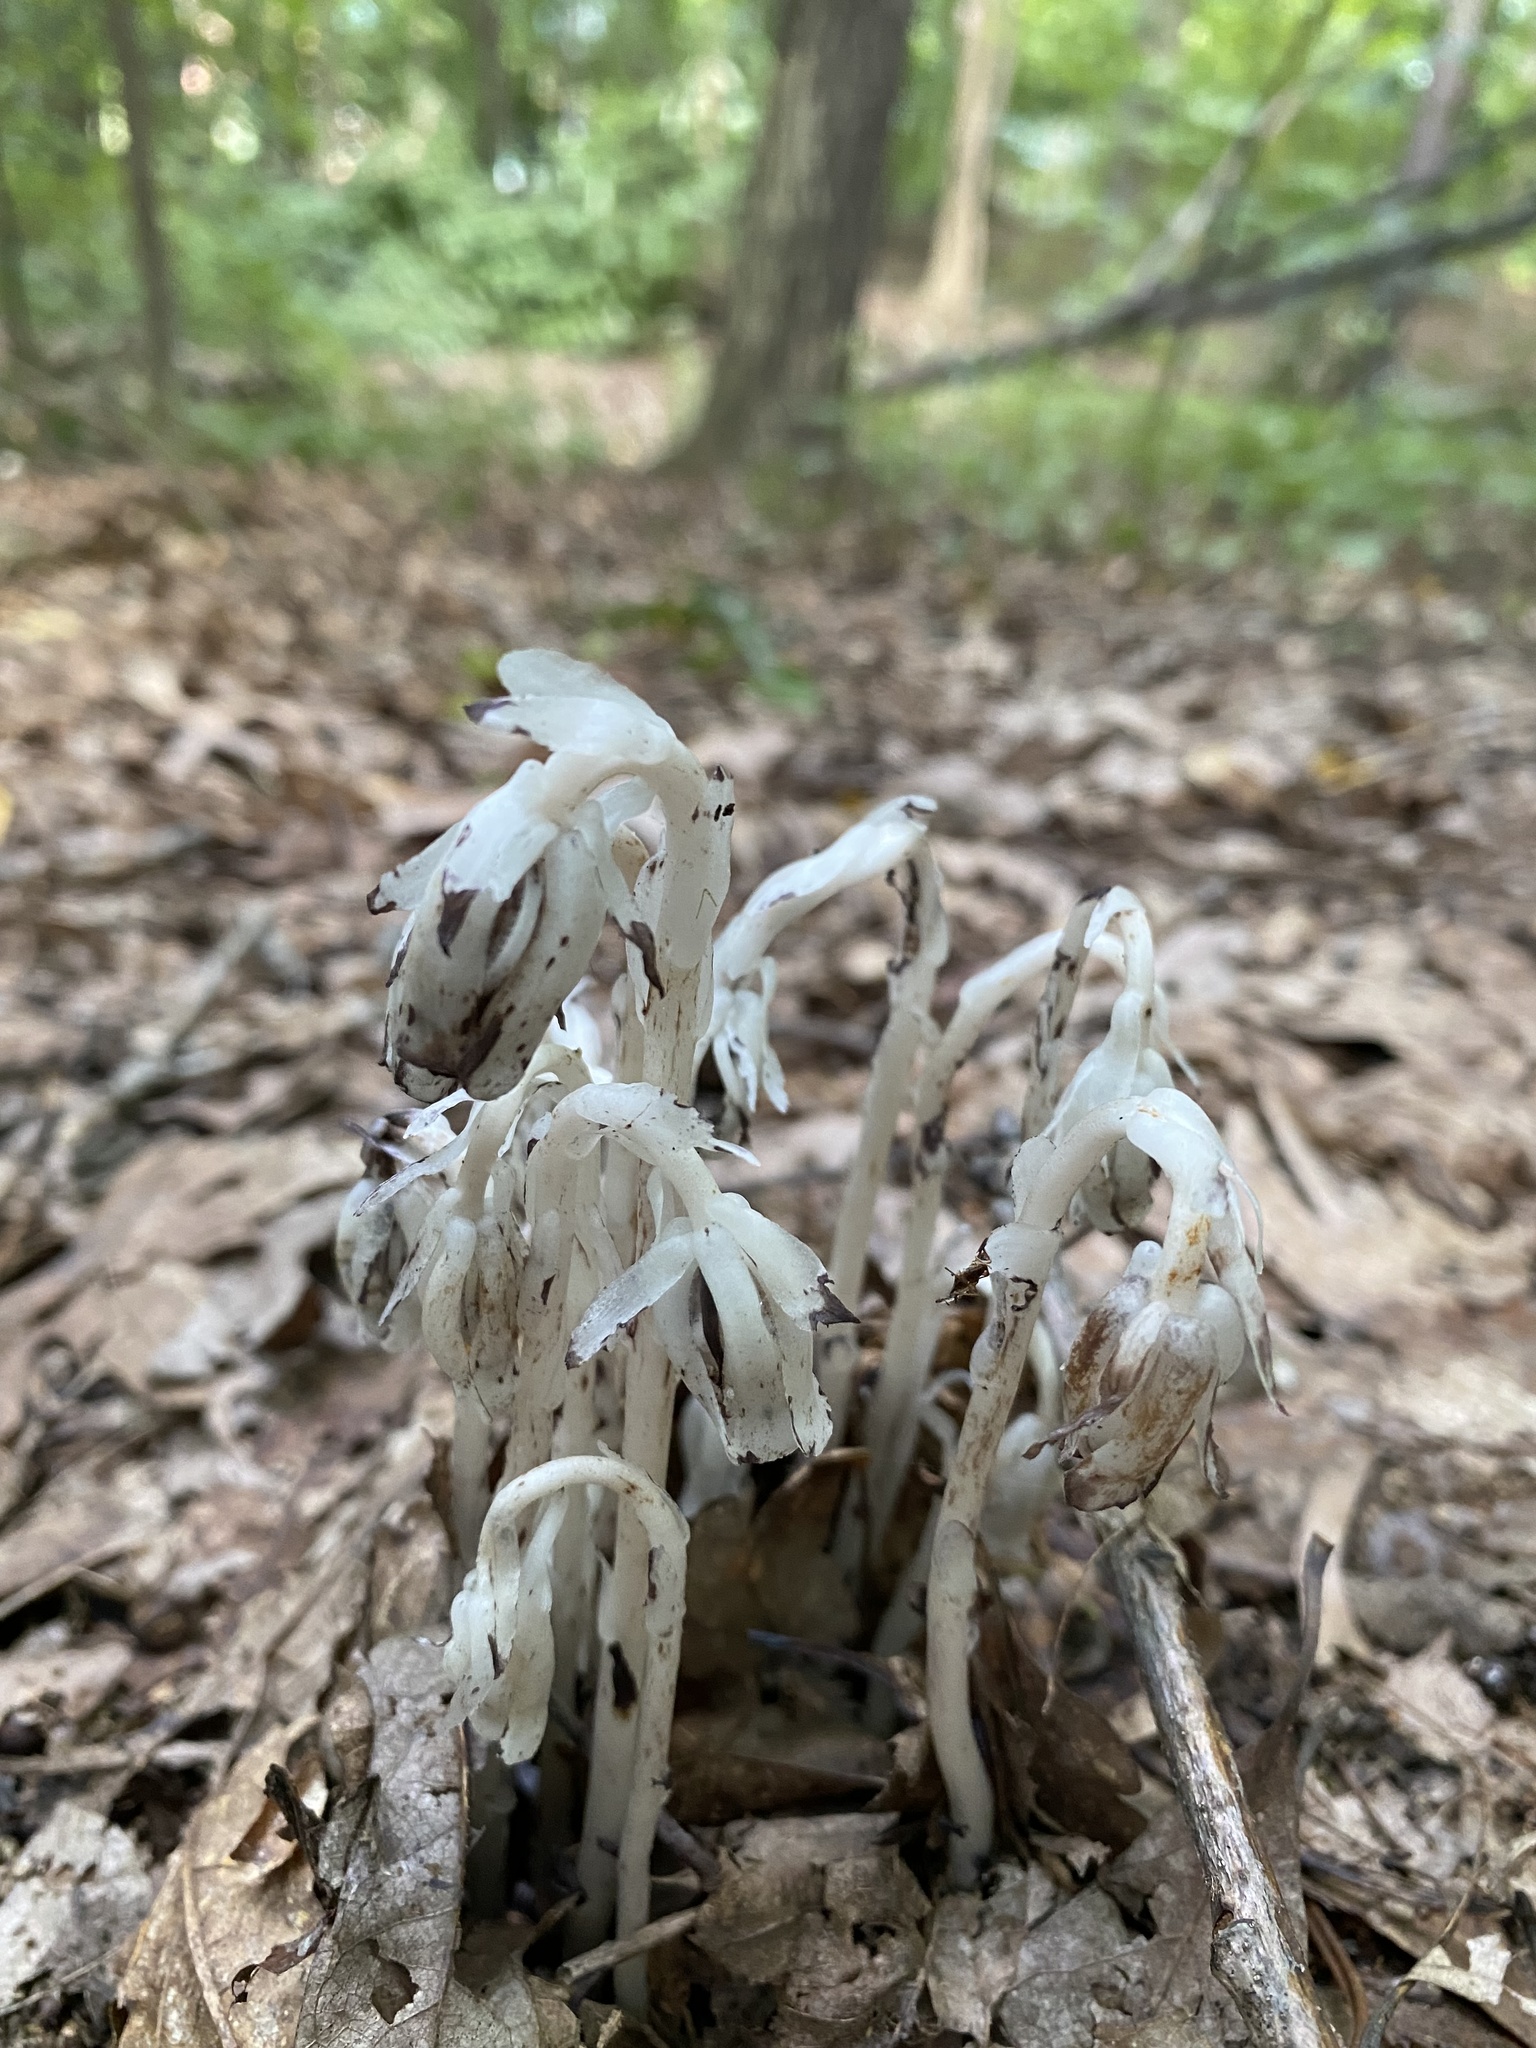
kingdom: Plantae
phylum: Tracheophyta
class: Magnoliopsida
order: Ericales
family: Ericaceae
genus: Monotropa
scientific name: Monotropa uniflora
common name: Convulsion root
